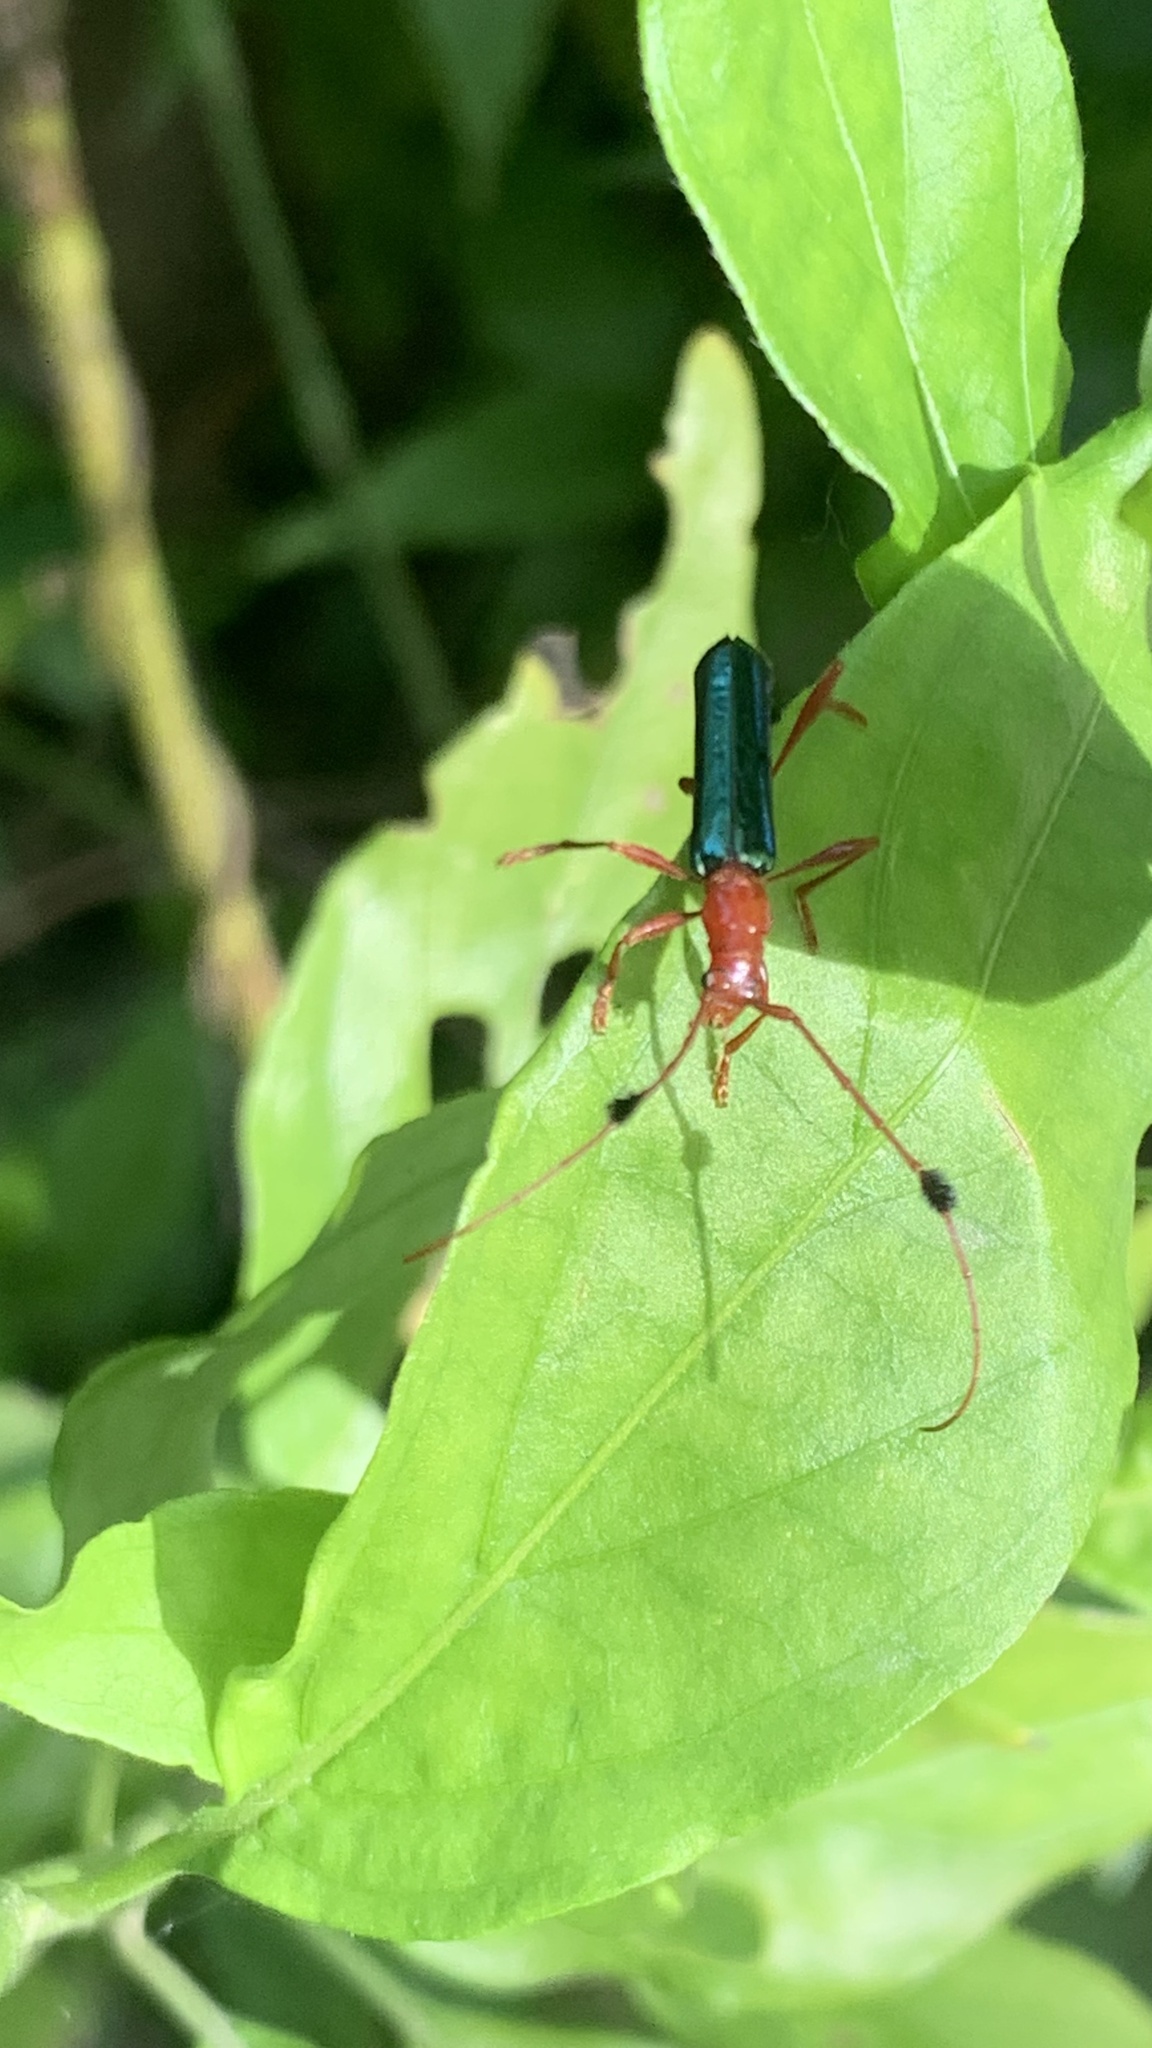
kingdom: Animalia
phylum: Arthropoda
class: Insecta
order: Coleoptera
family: Cerambycidae
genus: Paromoeocerus
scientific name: Paromoeocerus barbicornis
